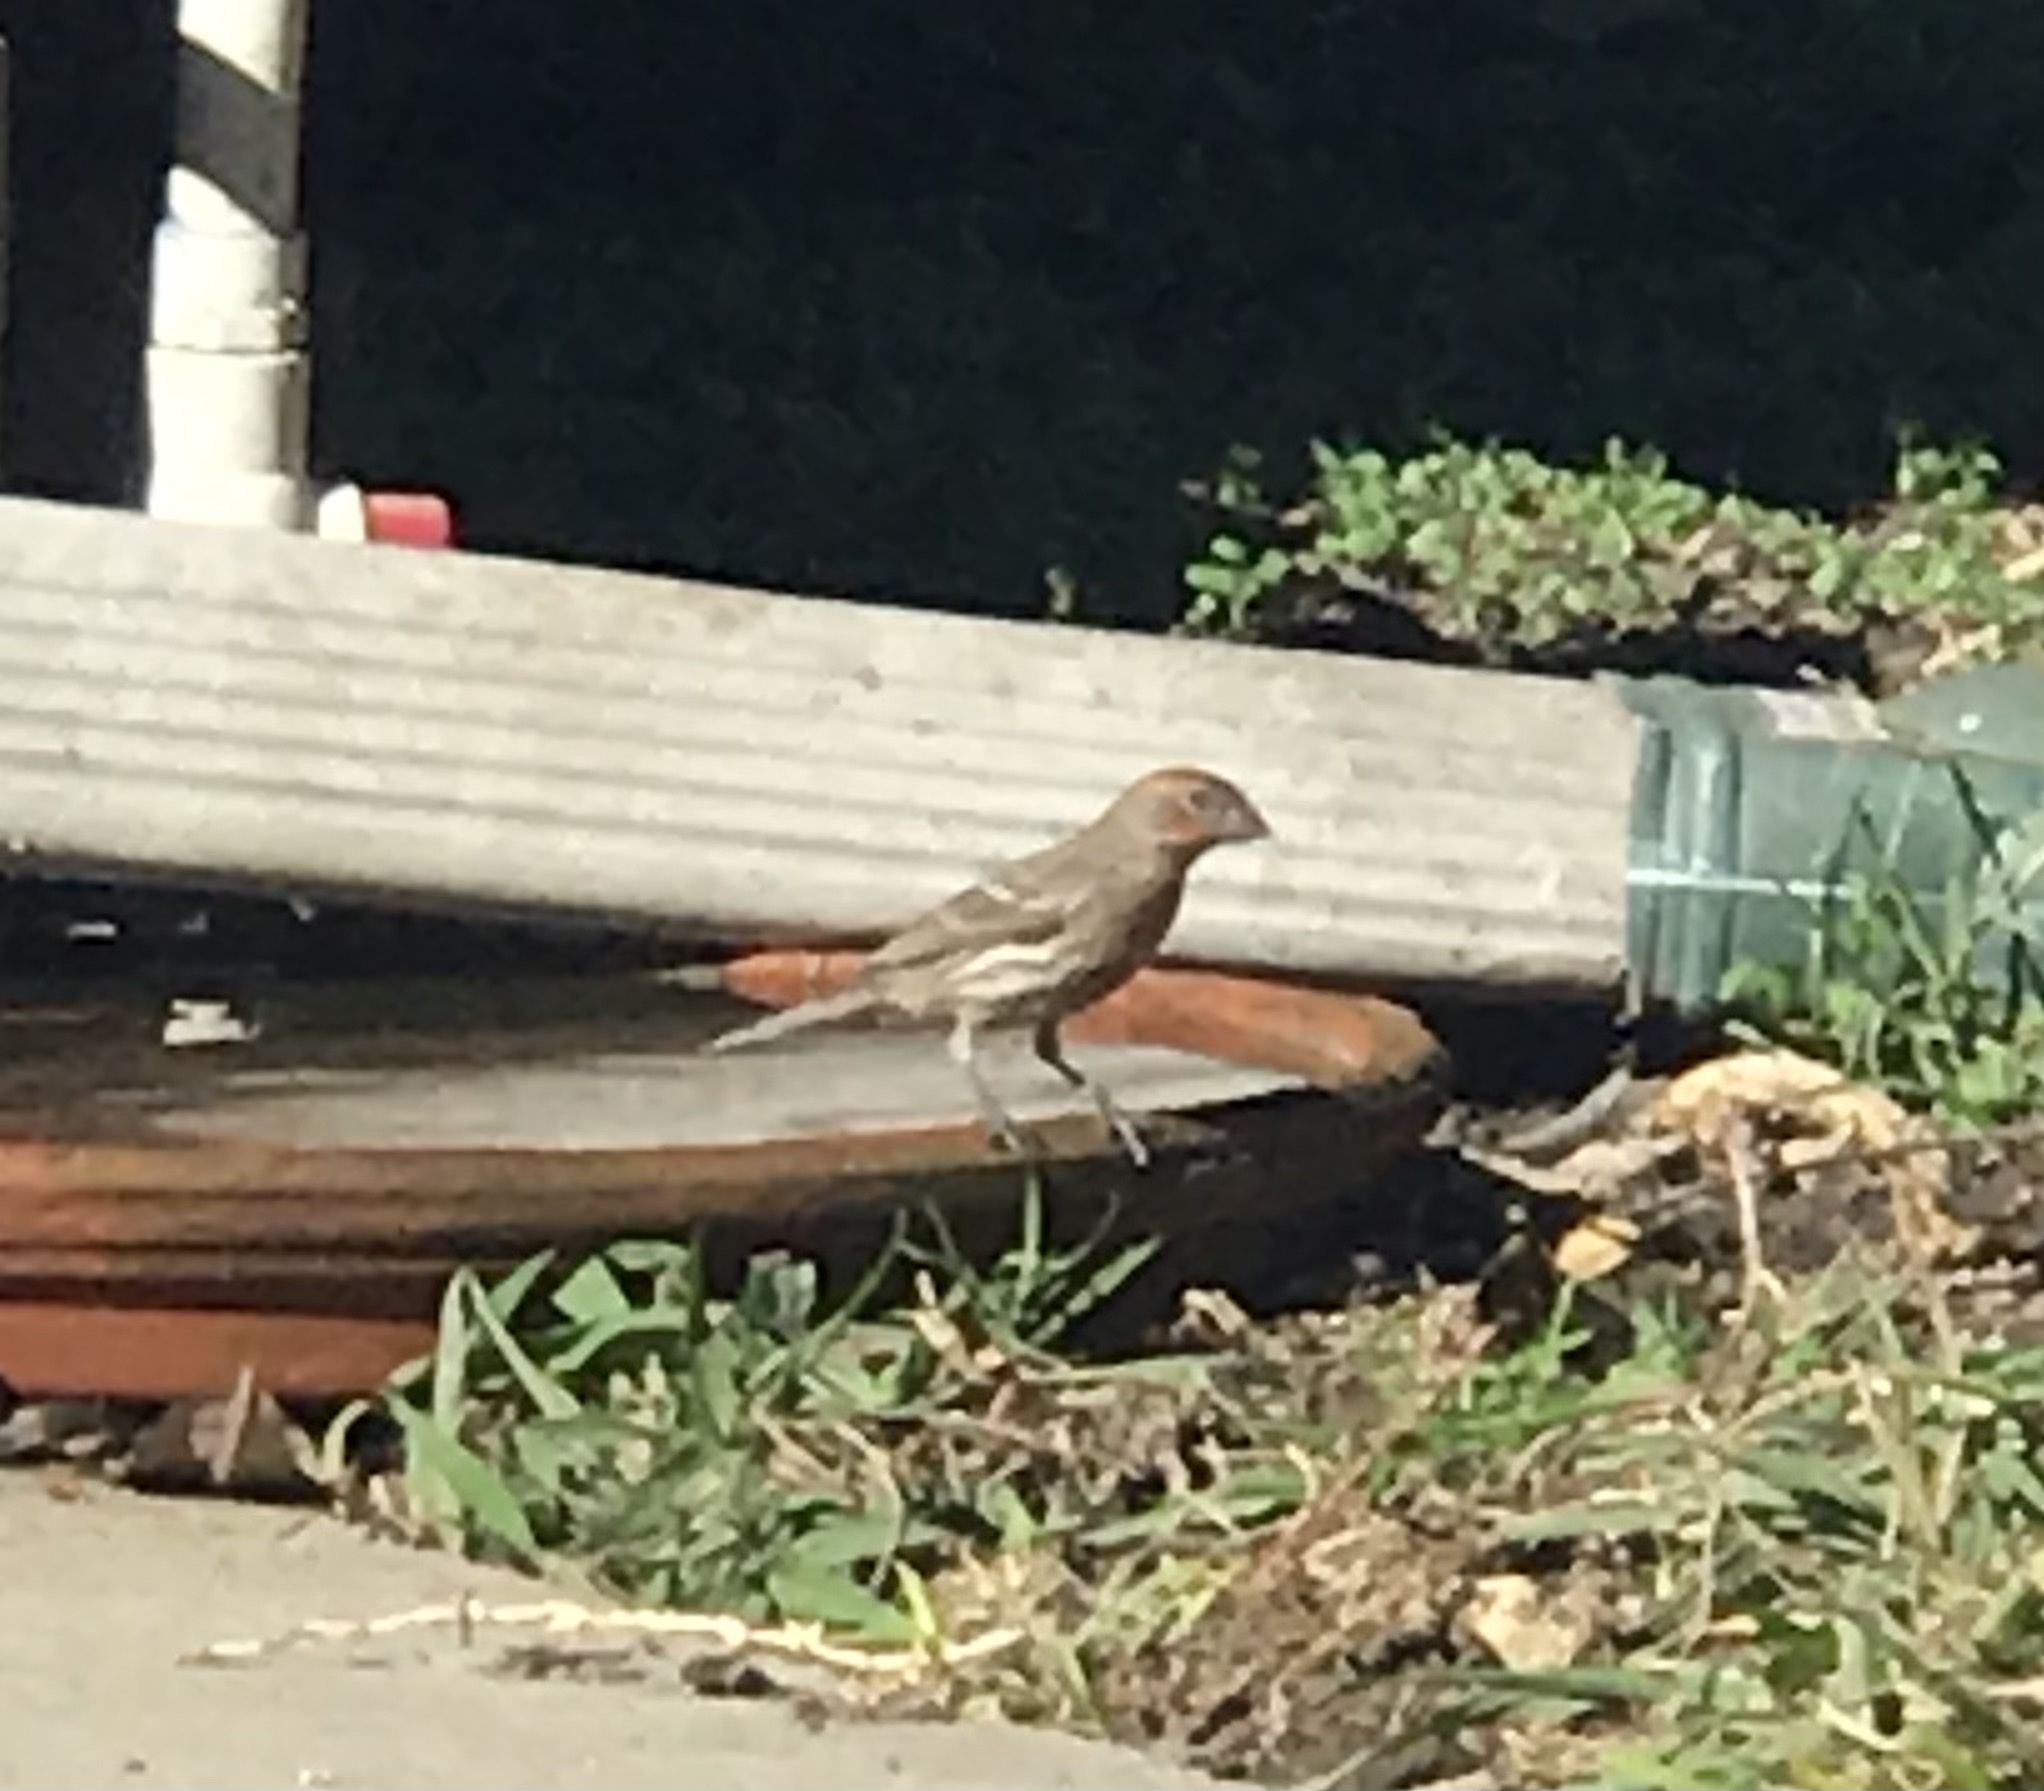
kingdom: Animalia
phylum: Chordata
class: Aves
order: Passeriformes
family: Fringillidae
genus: Haemorhous
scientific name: Haemorhous mexicanus
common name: House finch
